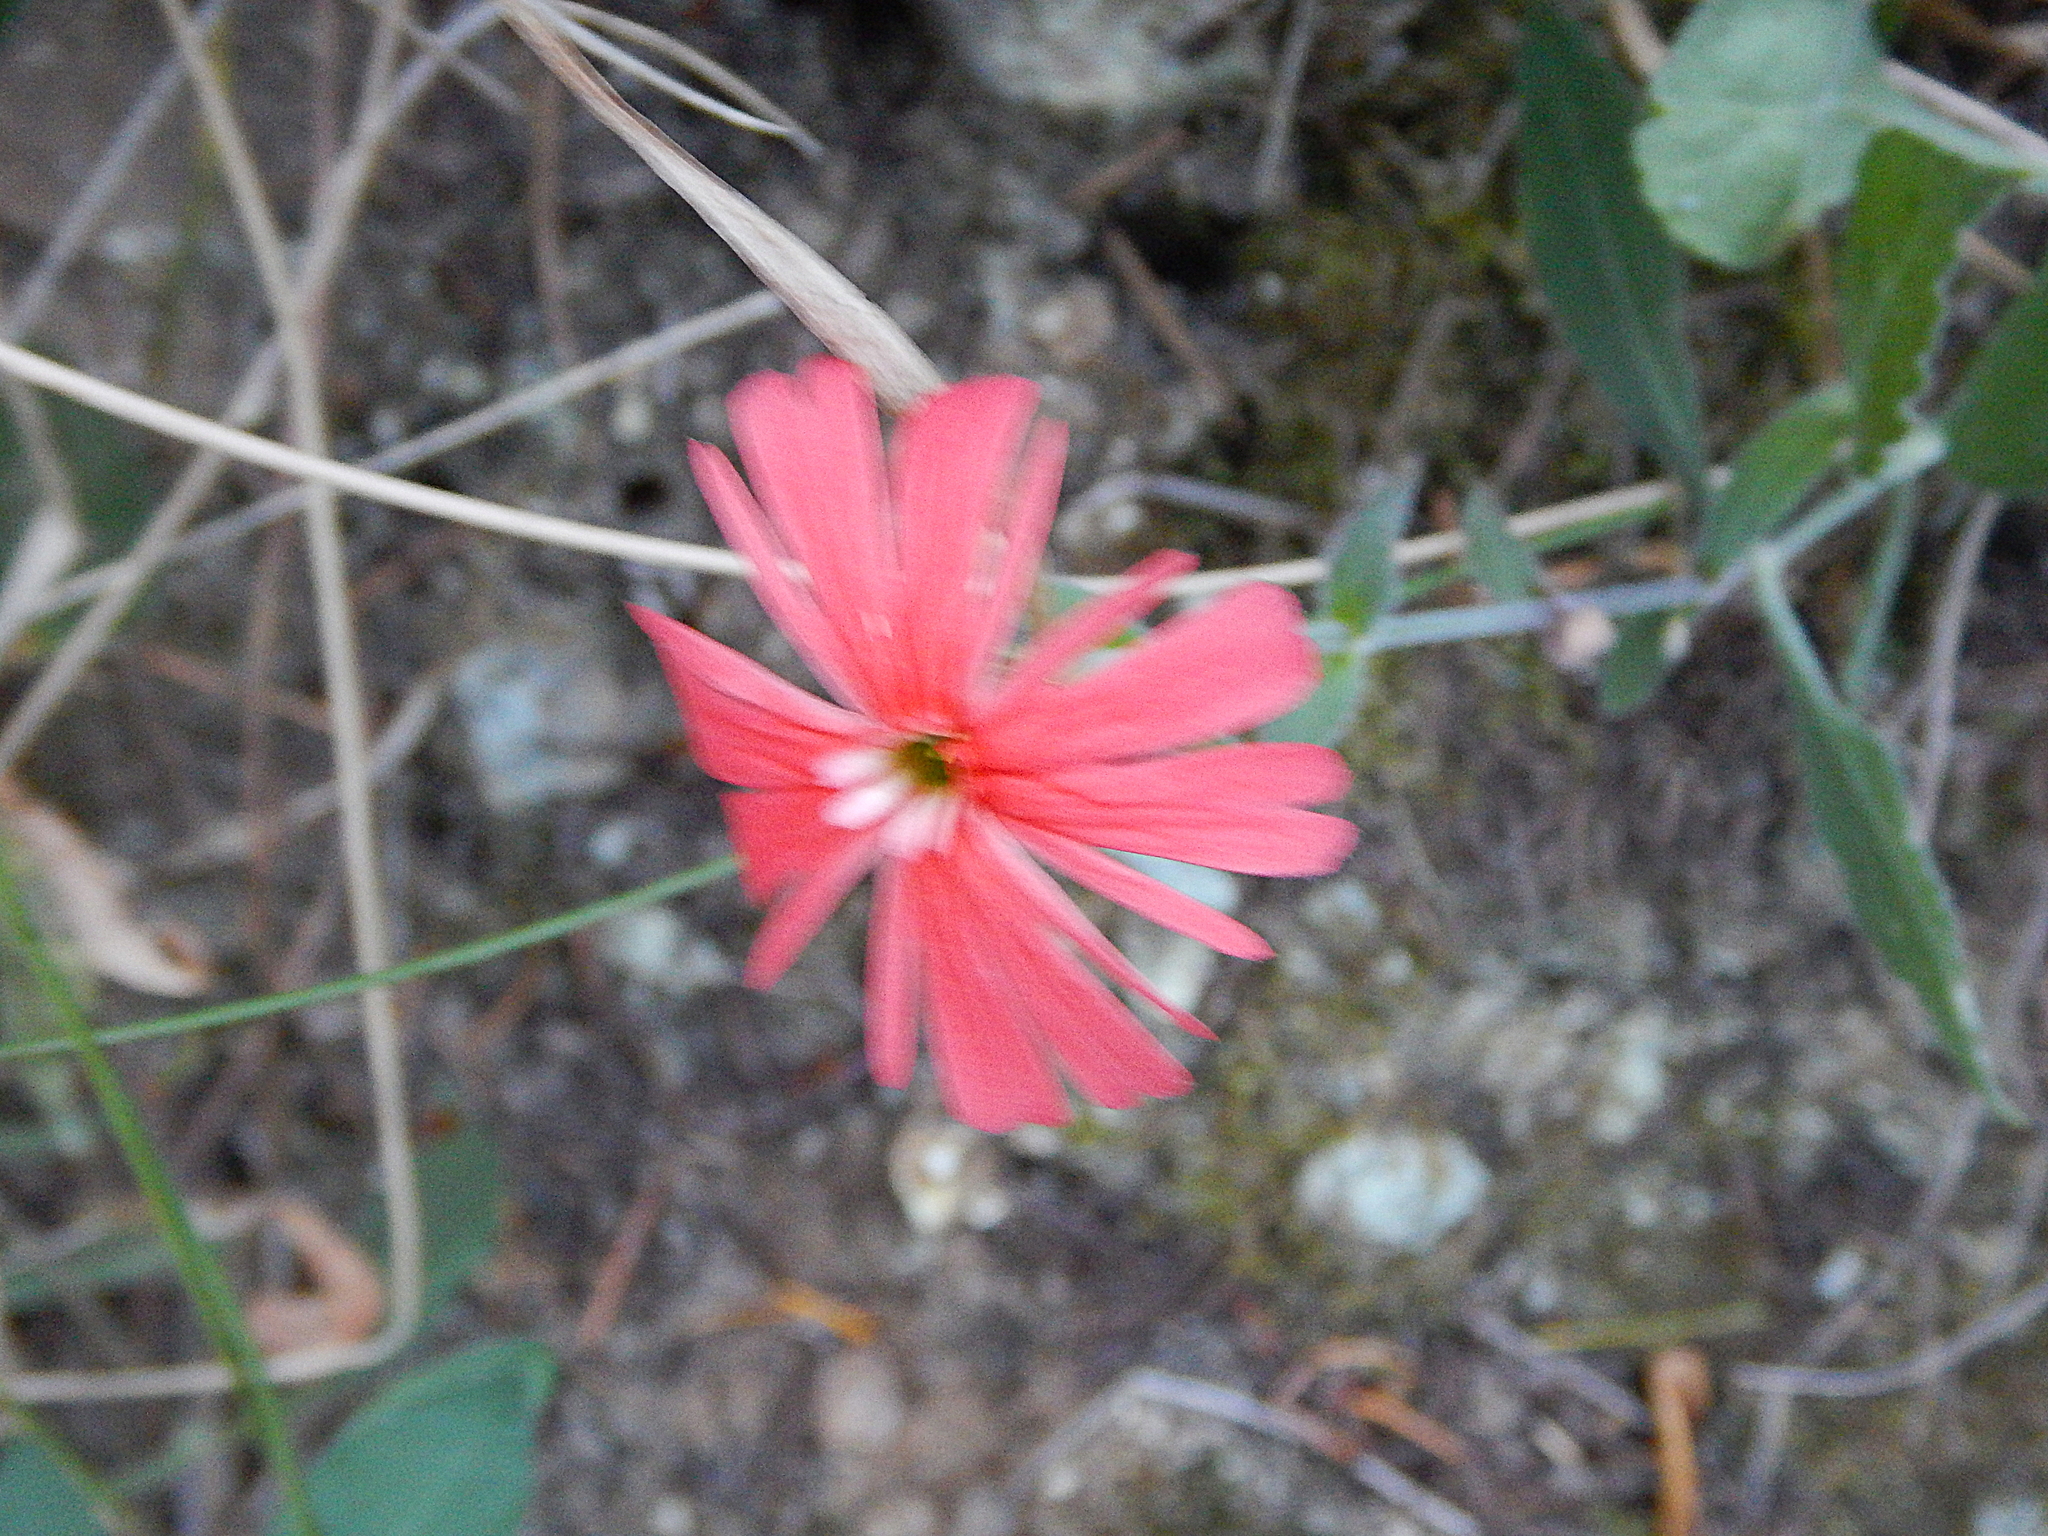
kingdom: Plantae
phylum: Tracheophyta
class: Magnoliopsida
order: Caryophyllales
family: Caryophyllaceae
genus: Silene
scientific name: Silene laciniata
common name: Indian-pink
